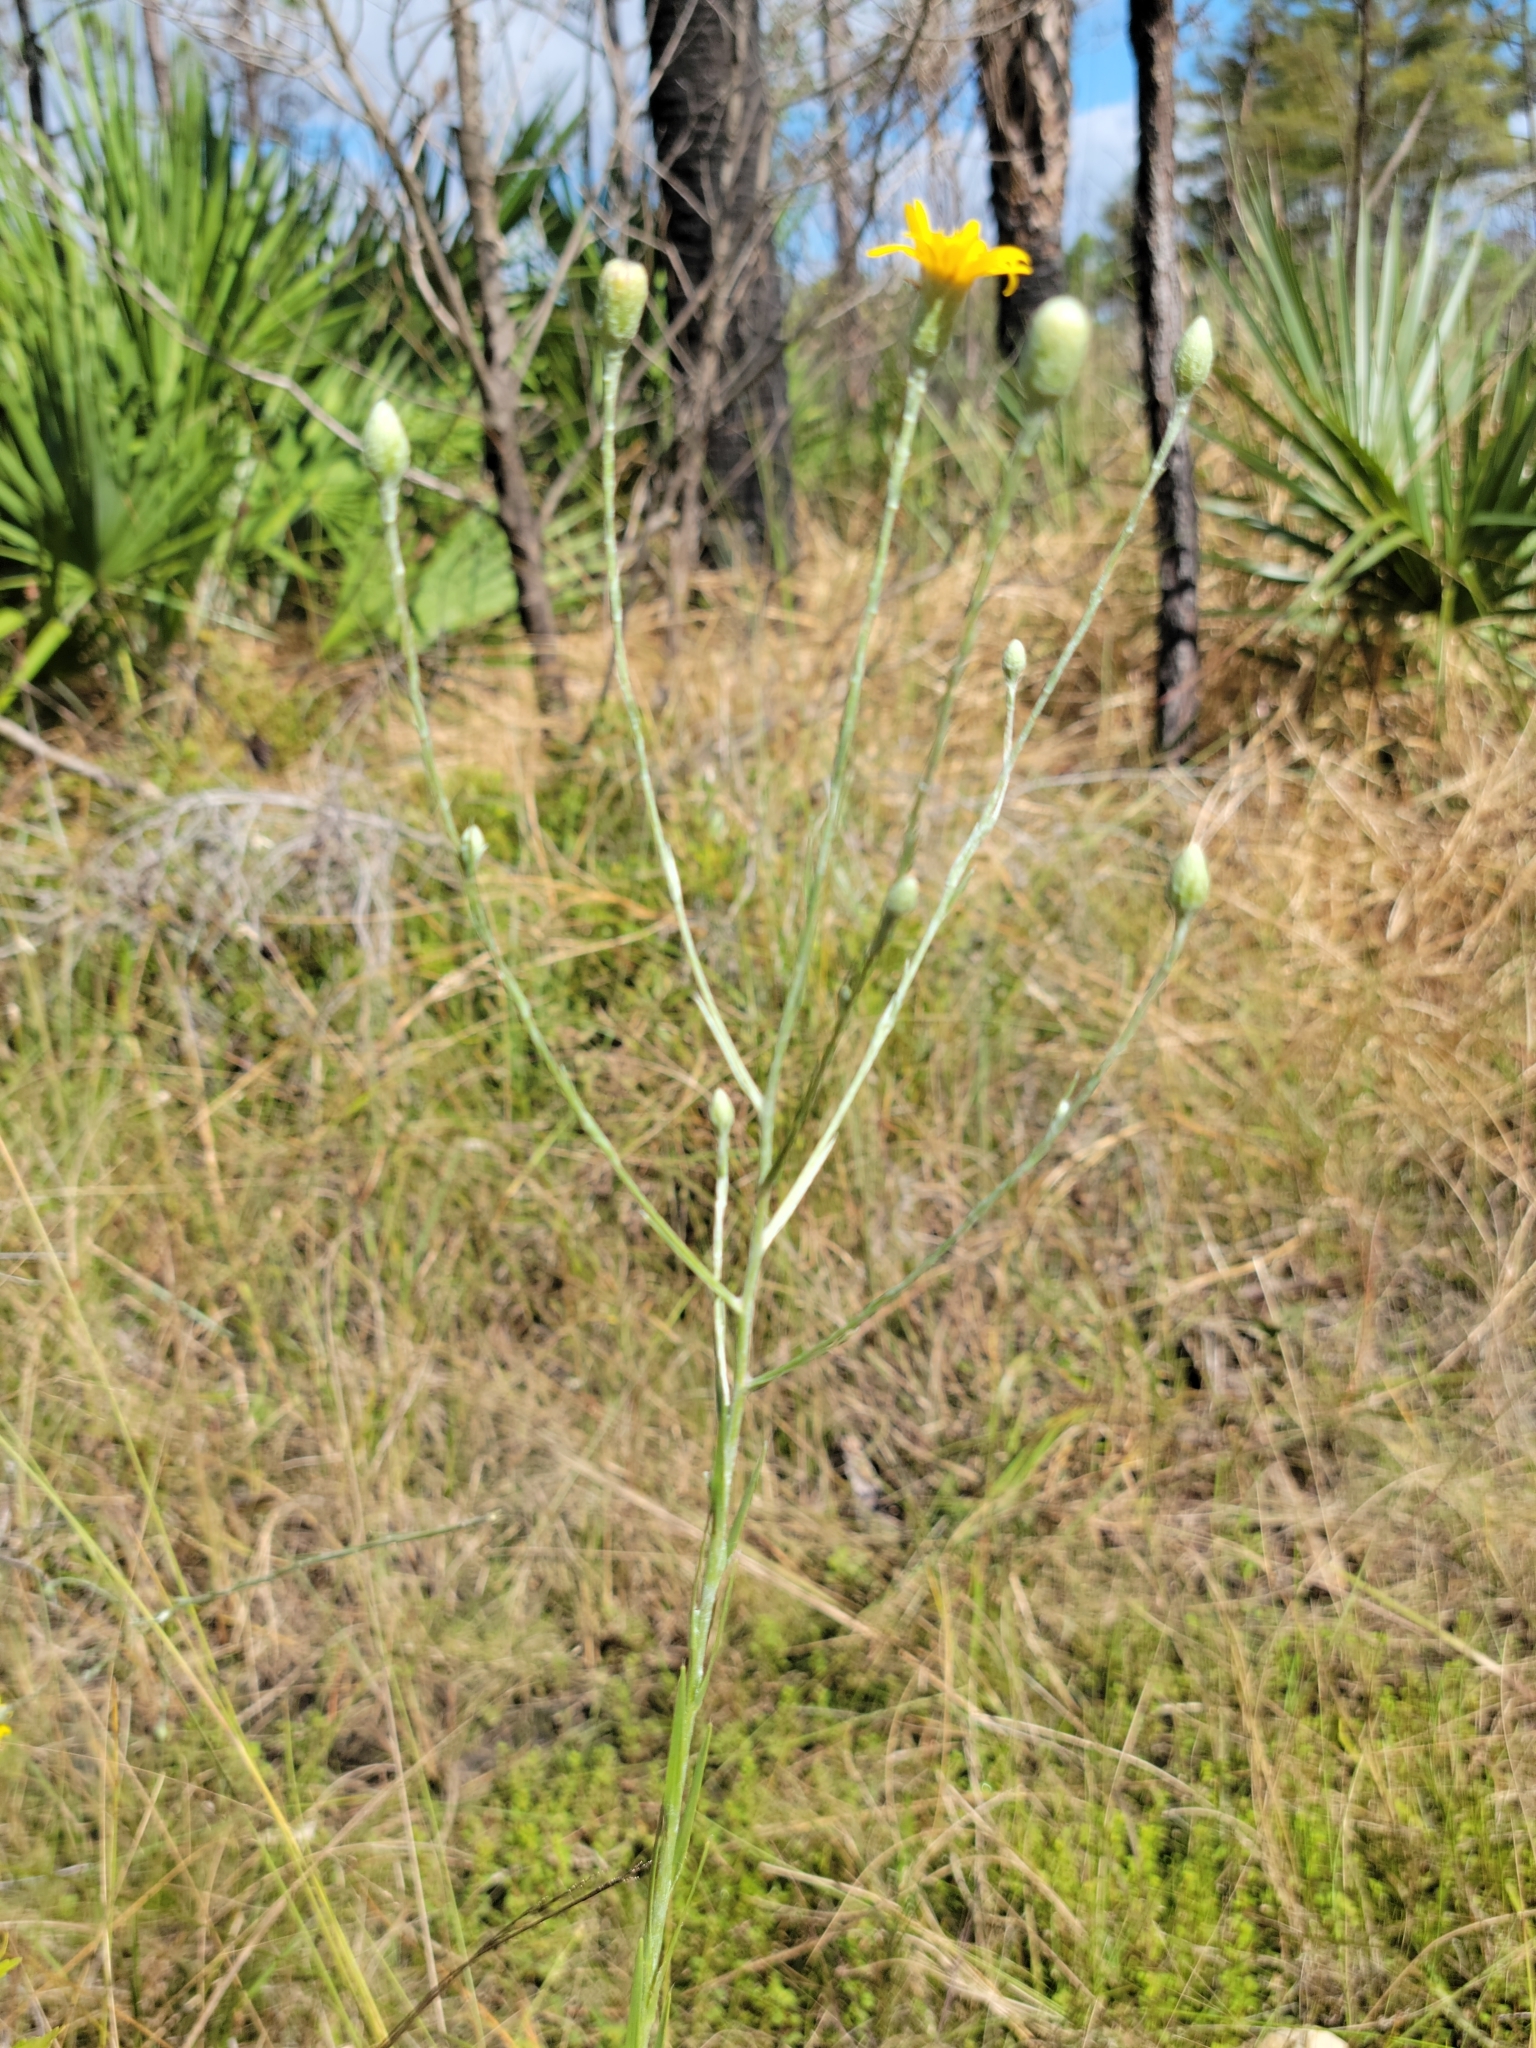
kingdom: Plantae
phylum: Tracheophyta
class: Magnoliopsida
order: Asterales
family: Asteraceae
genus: Pityopsis
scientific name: Pityopsis tracyi
